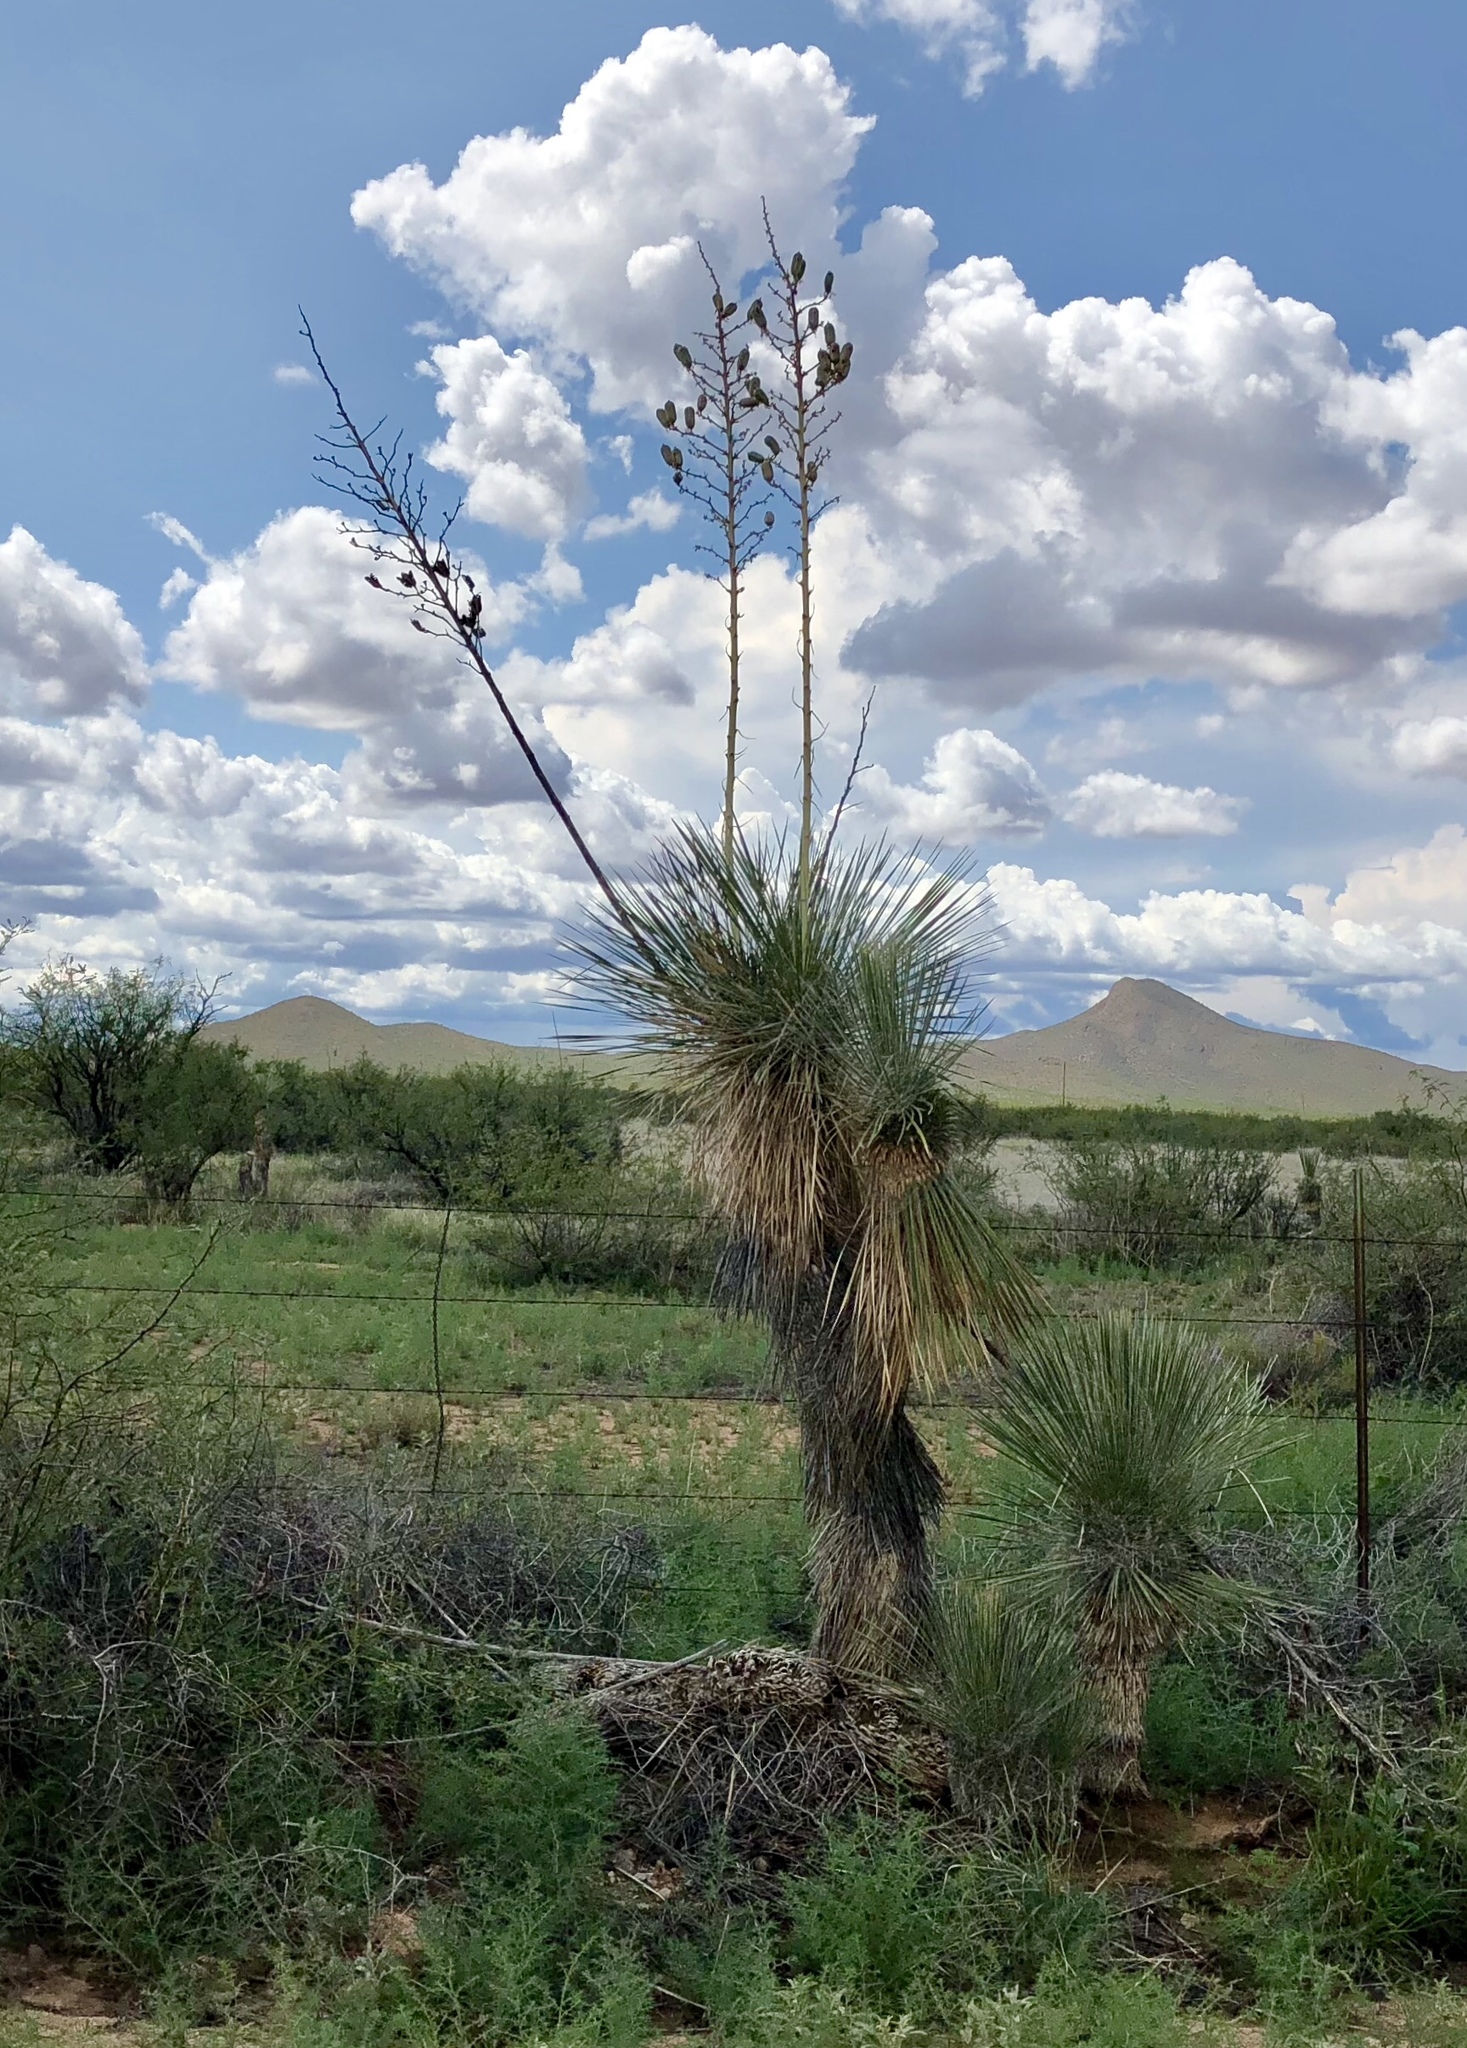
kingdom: Plantae
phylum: Tracheophyta
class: Liliopsida
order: Asparagales
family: Asparagaceae
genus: Yucca
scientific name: Yucca elata
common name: Palmella
